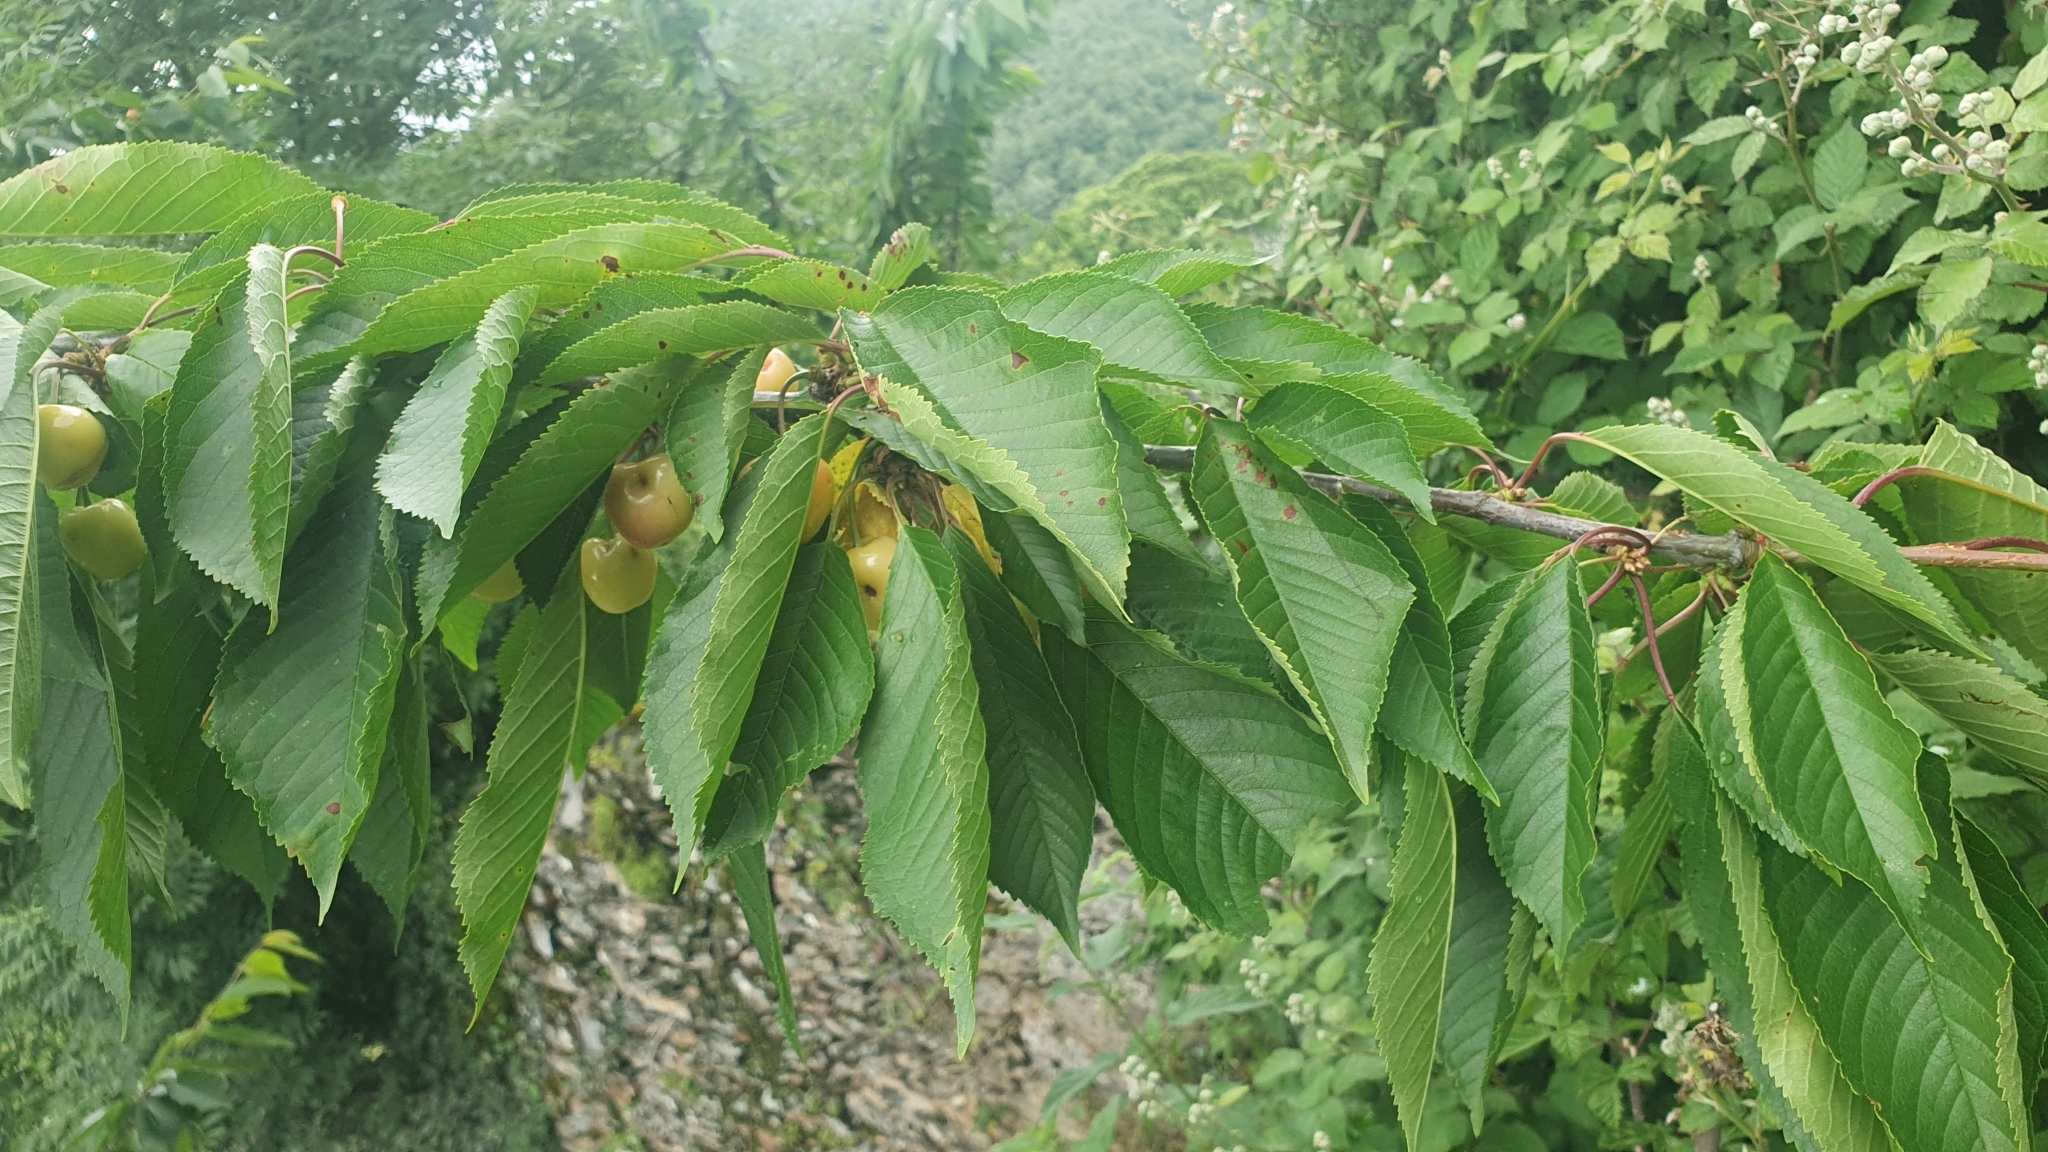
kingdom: Plantae
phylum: Tracheophyta
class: Magnoliopsida
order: Rosales
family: Rosaceae
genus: Prunus
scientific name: Prunus avium
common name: Sweet cherry
